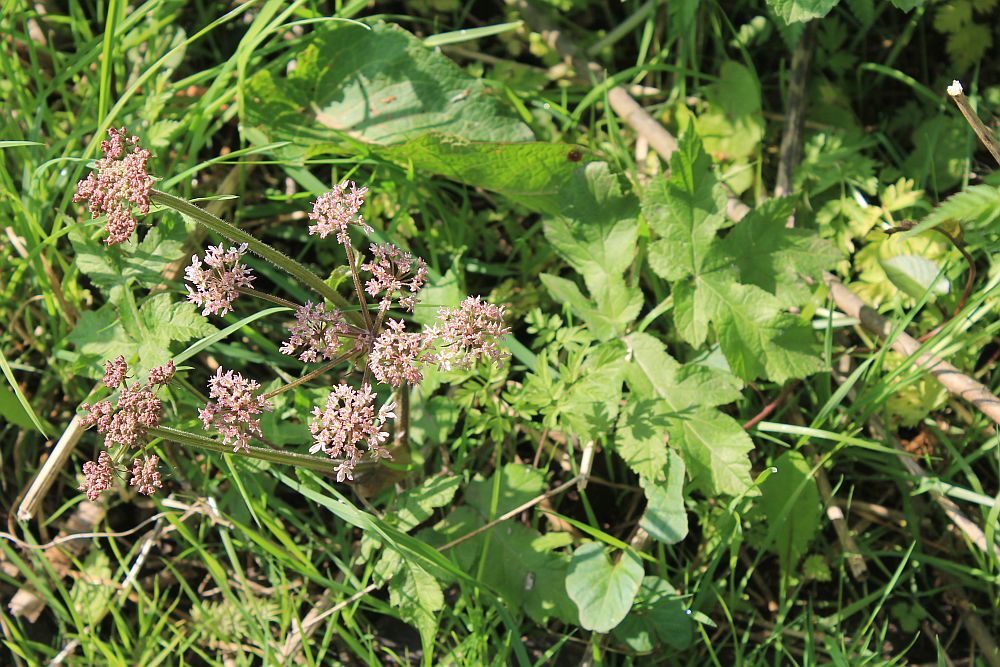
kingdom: Plantae
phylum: Tracheophyta
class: Magnoliopsida
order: Apiales
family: Apiaceae
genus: Heracleum
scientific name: Heracleum sphondylium
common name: Hogweed
